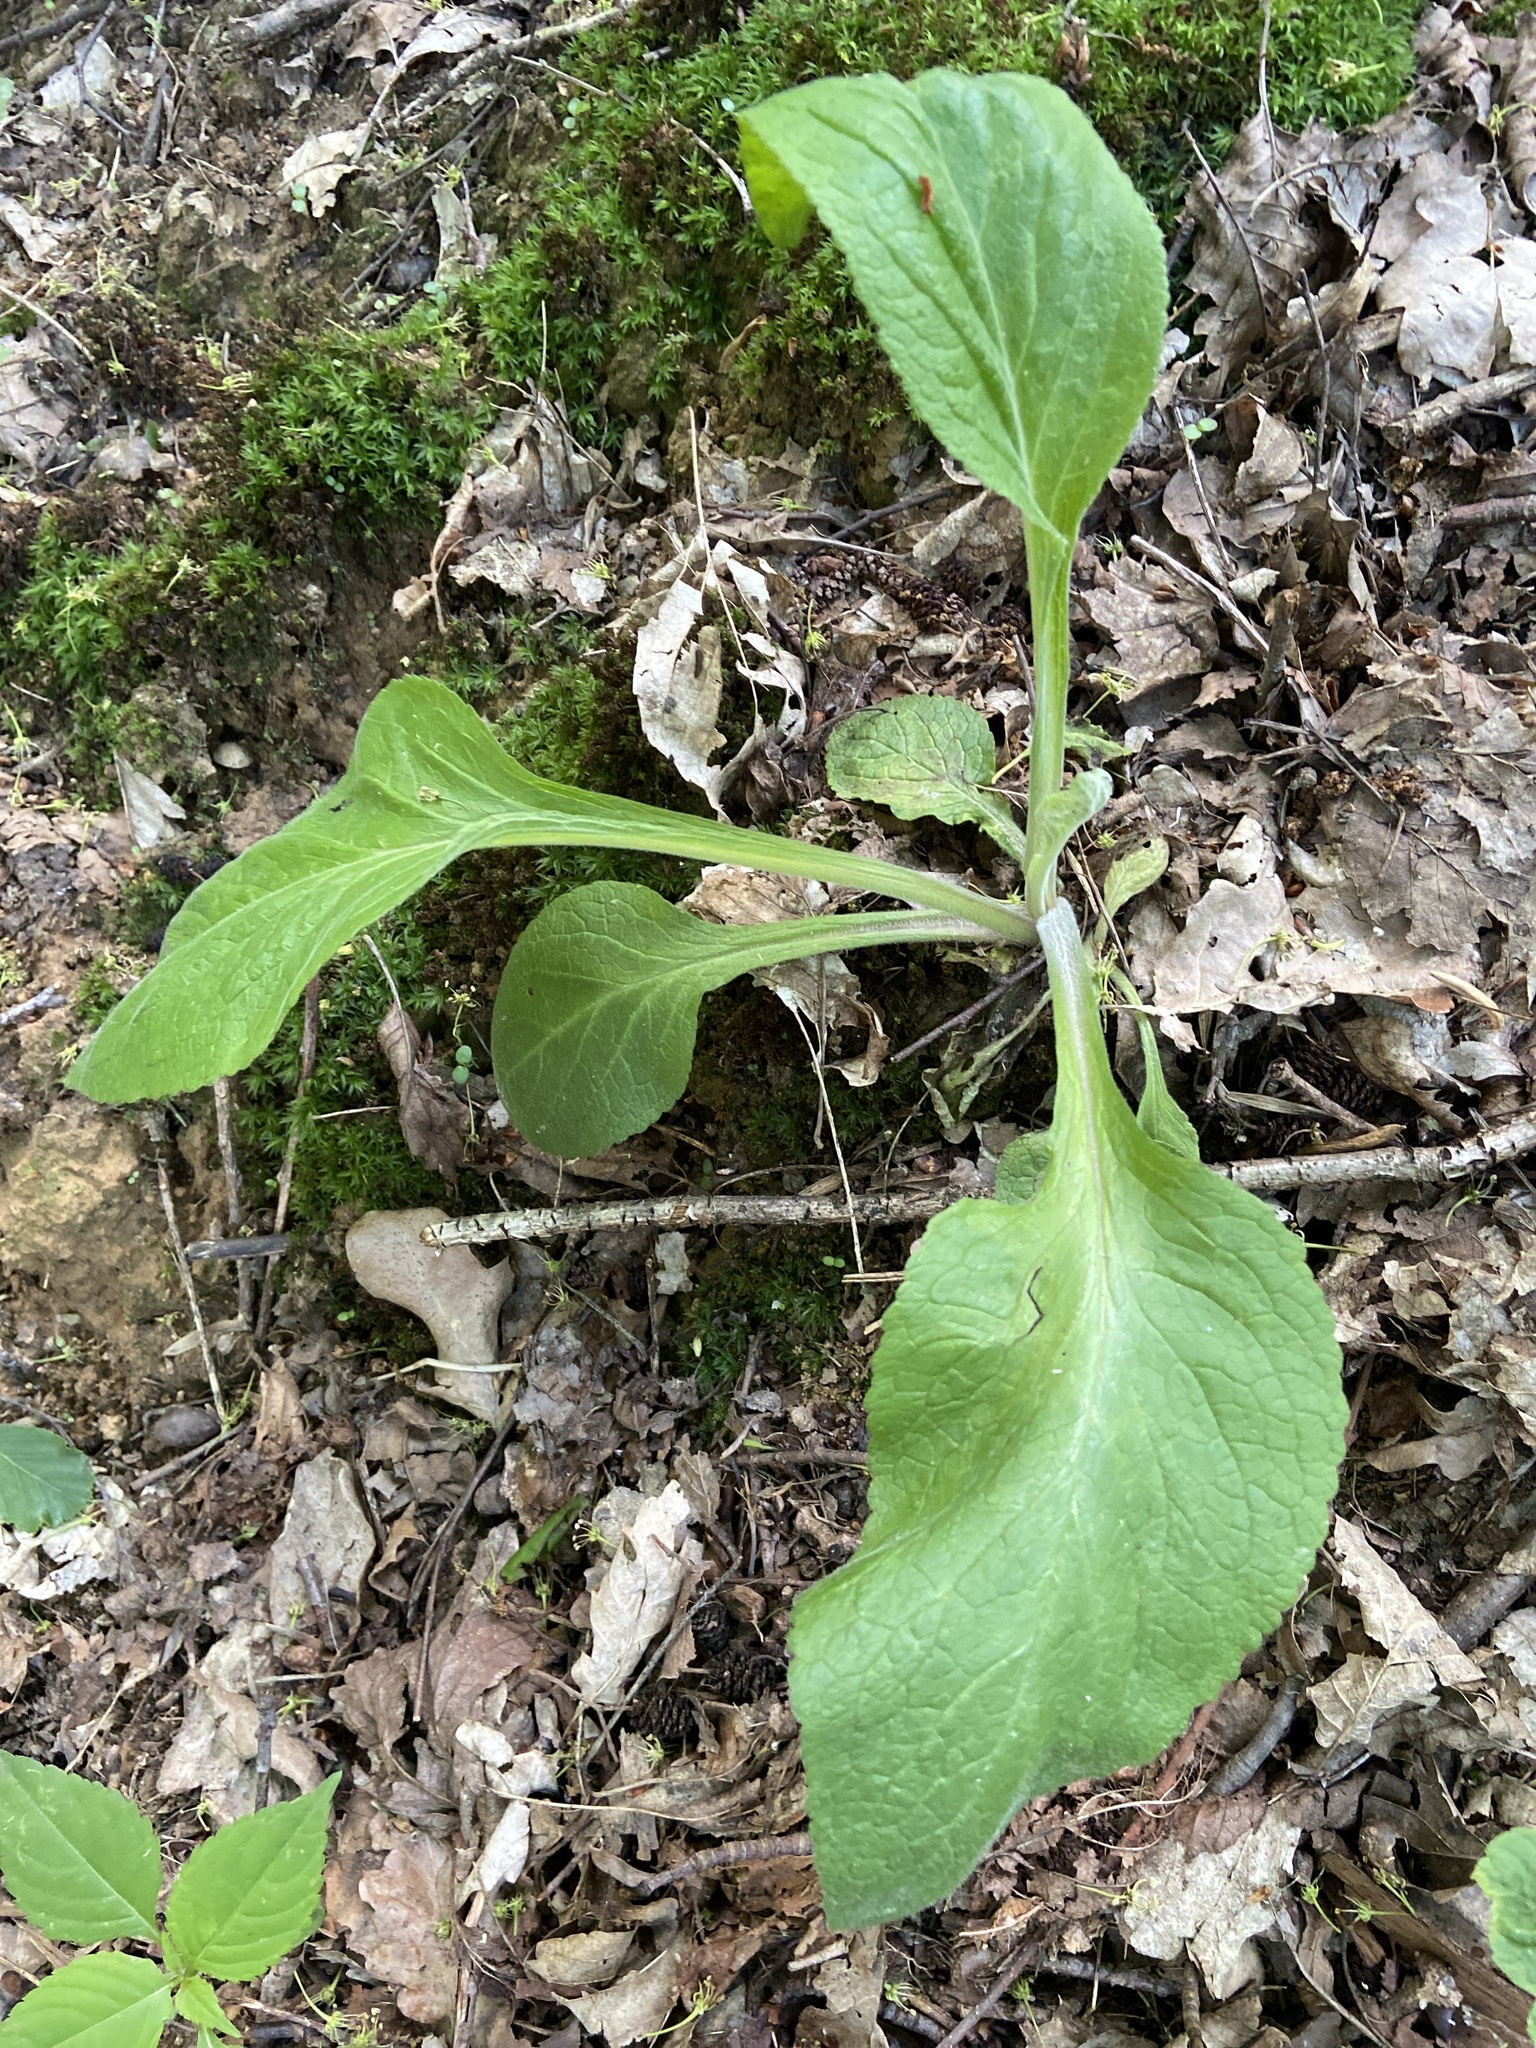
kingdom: Plantae
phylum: Tracheophyta
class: Magnoliopsida
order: Lamiales
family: Plantaginaceae
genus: Digitalis
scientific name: Digitalis purpurea
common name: Foxglove
